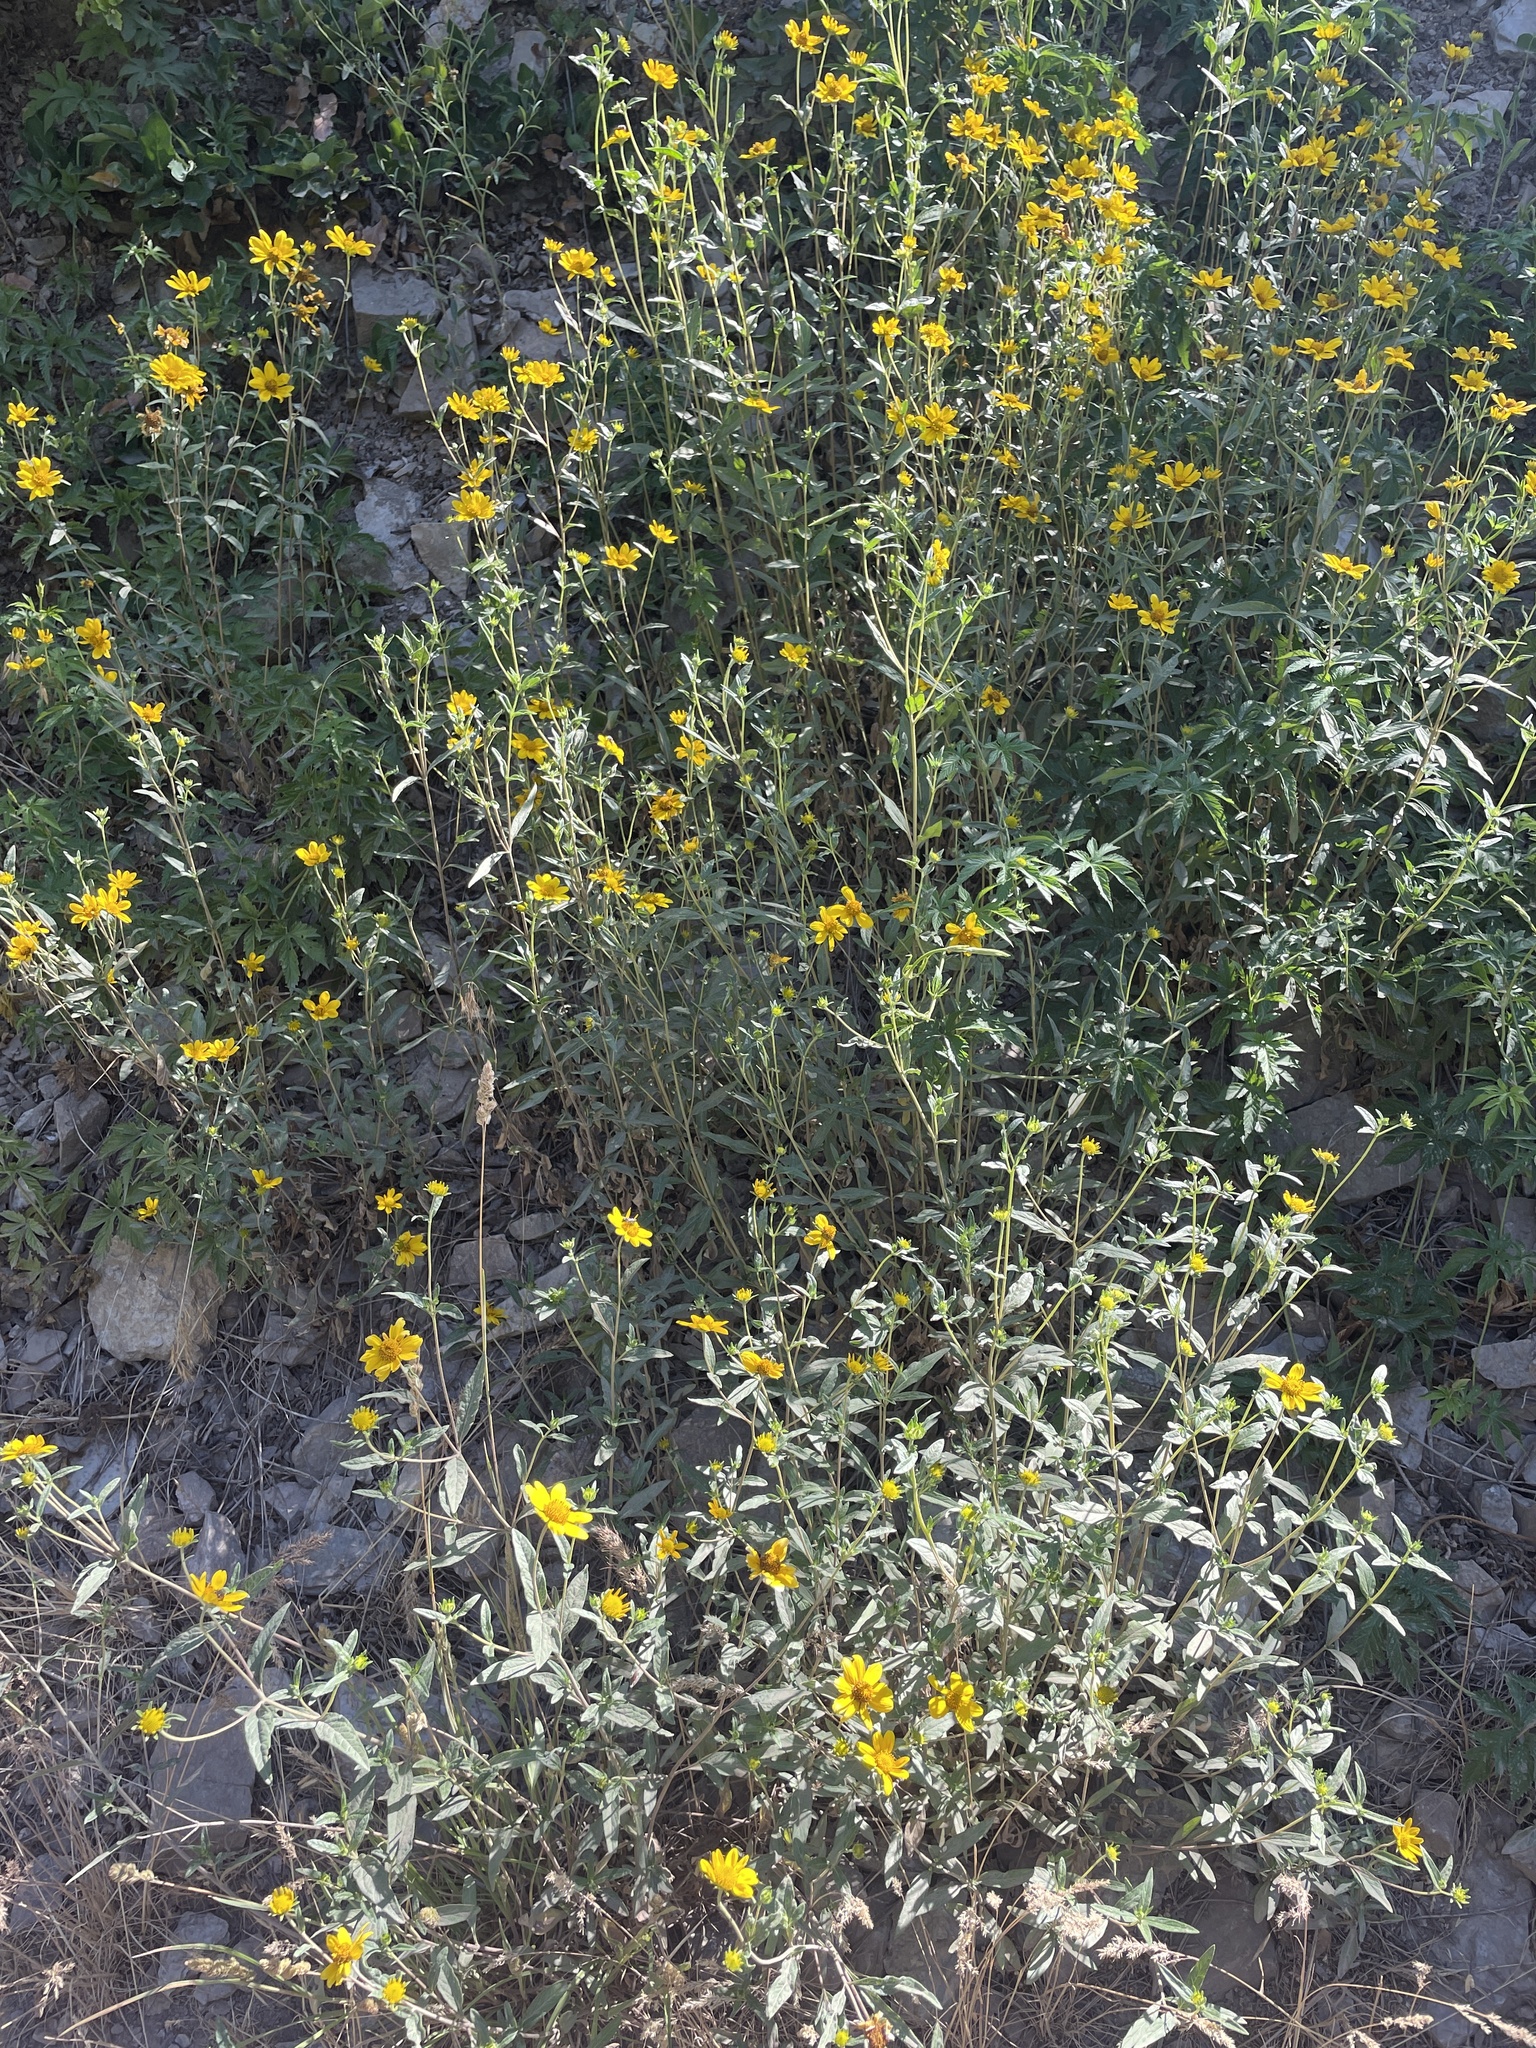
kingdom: Plantae
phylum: Tracheophyta
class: Magnoliopsida
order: Asterales
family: Asteraceae
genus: Heliomeris
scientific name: Heliomeris multiflora
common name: Showy goldeneye
